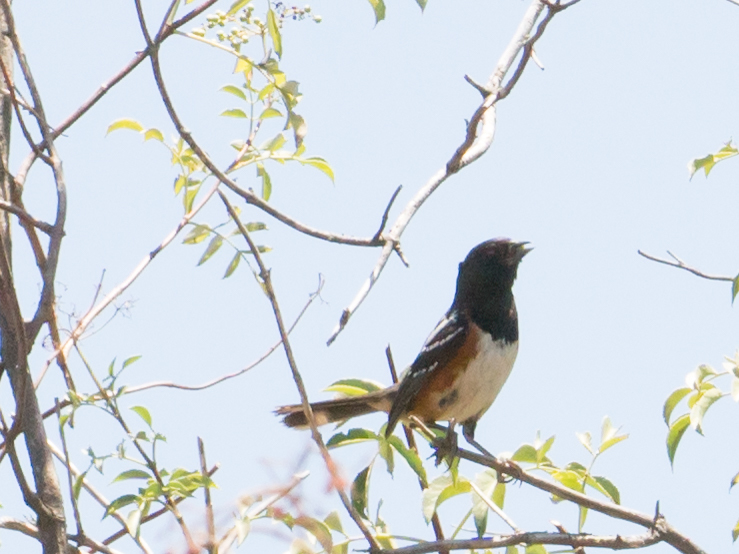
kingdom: Animalia
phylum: Chordata
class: Aves
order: Passeriformes
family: Passerellidae
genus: Pipilo
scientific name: Pipilo maculatus
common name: Spotted towhee
